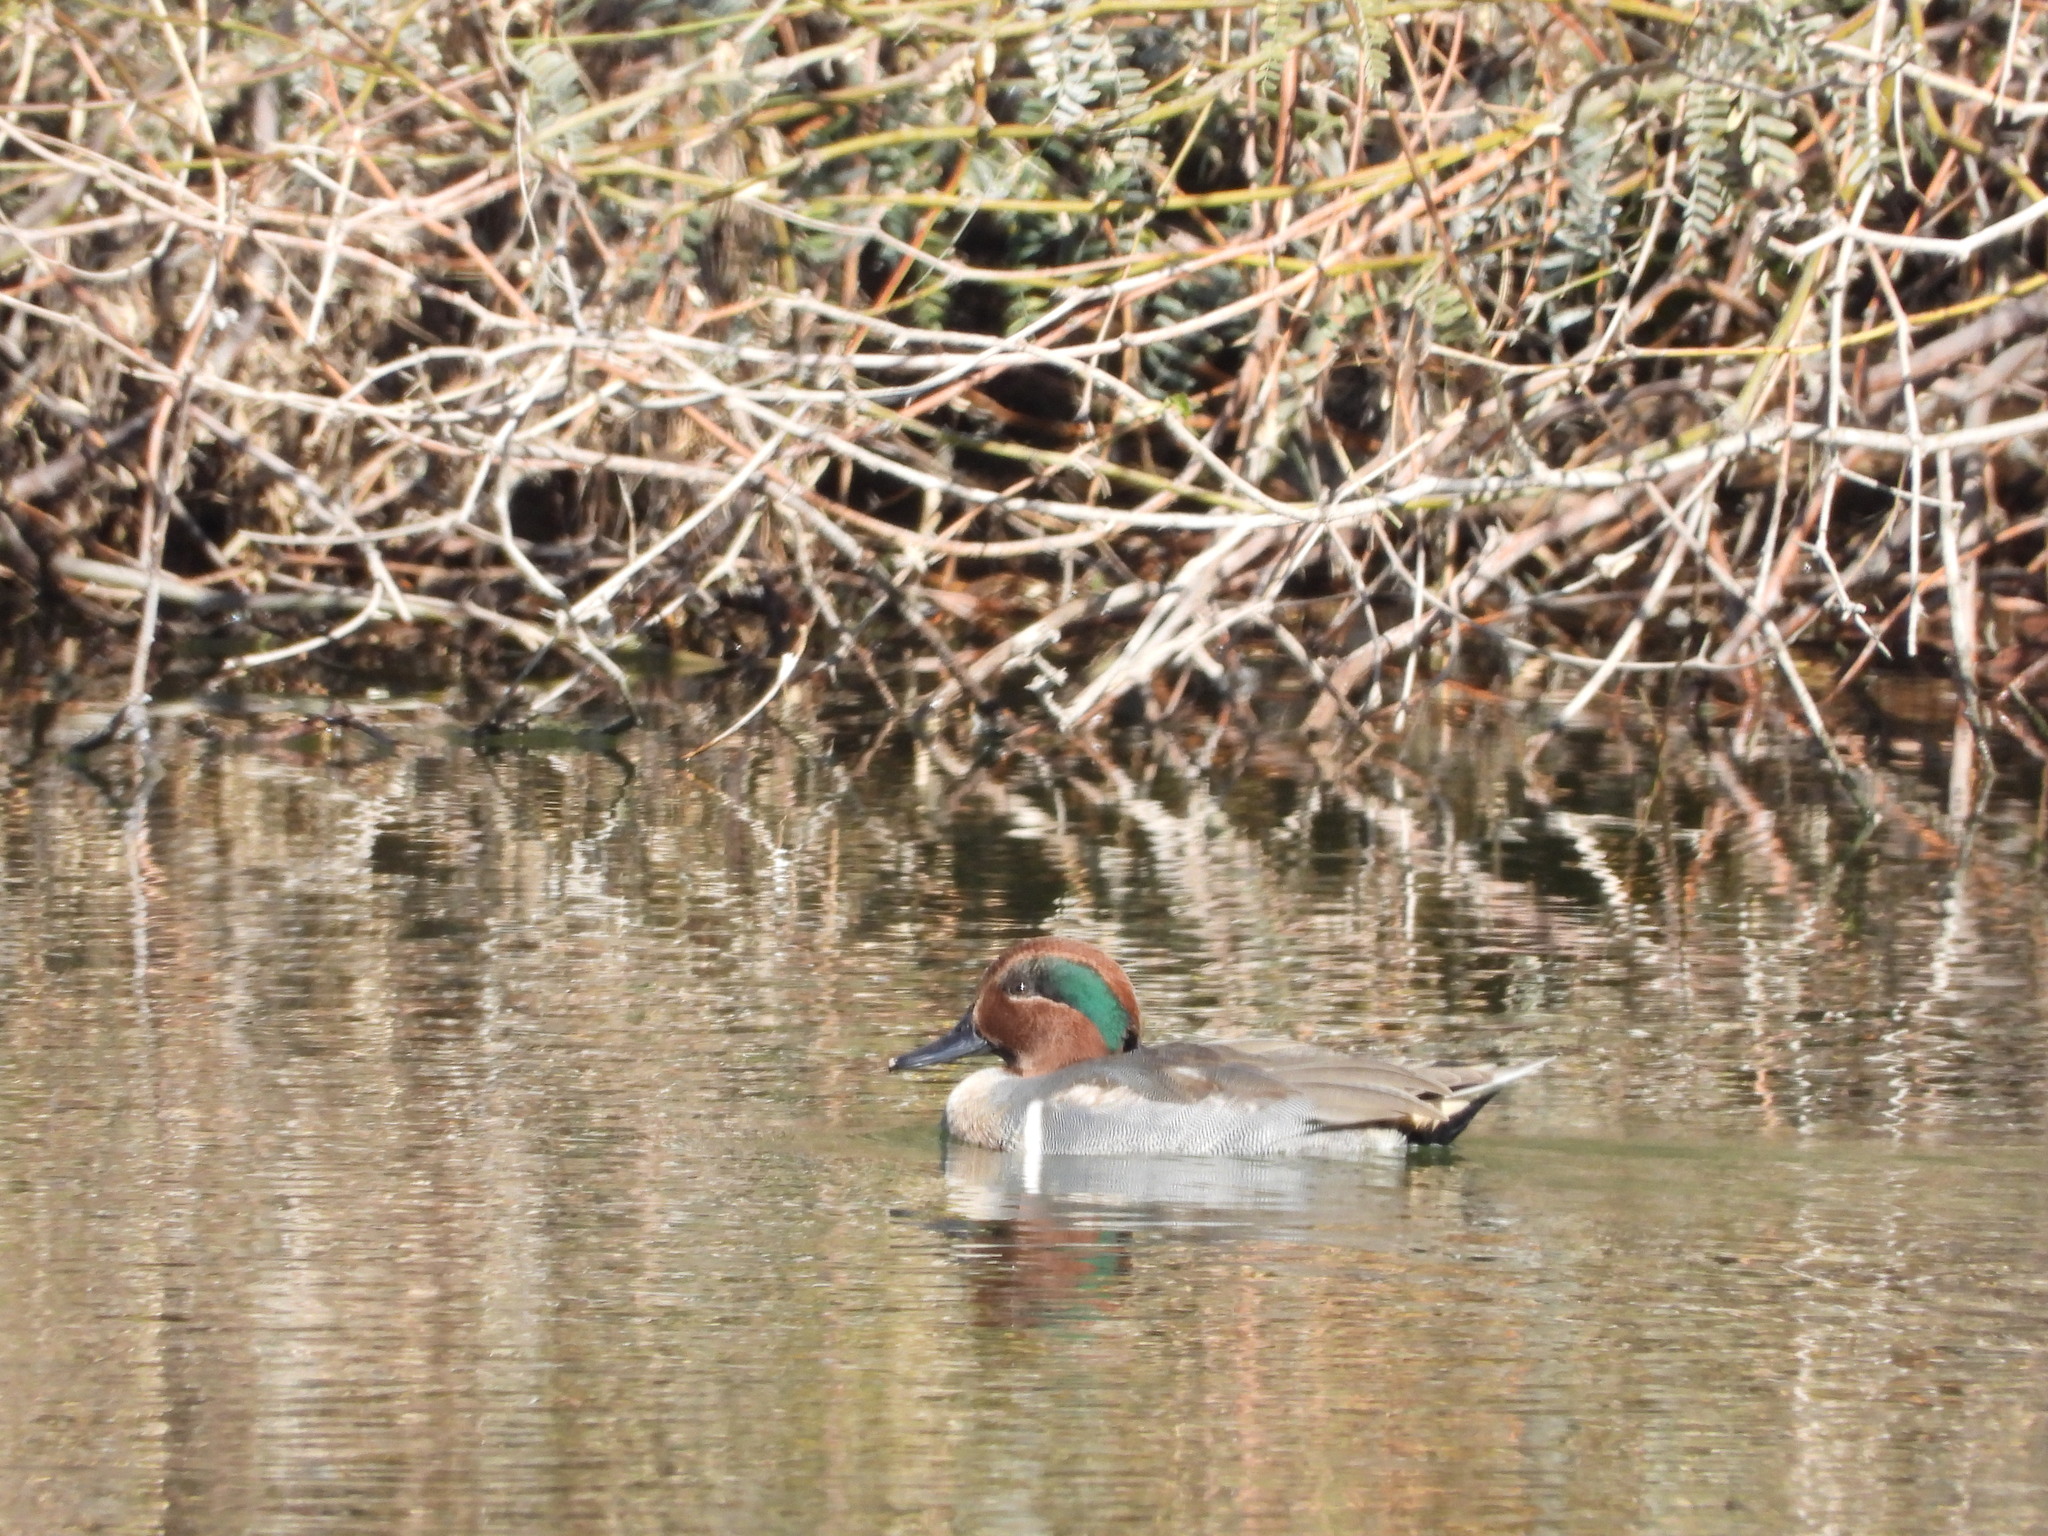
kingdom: Animalia
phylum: Chordata
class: Aves
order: Anseriformes
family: Anatidae
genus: Anas
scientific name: Anas crecca
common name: Eurasian teal
